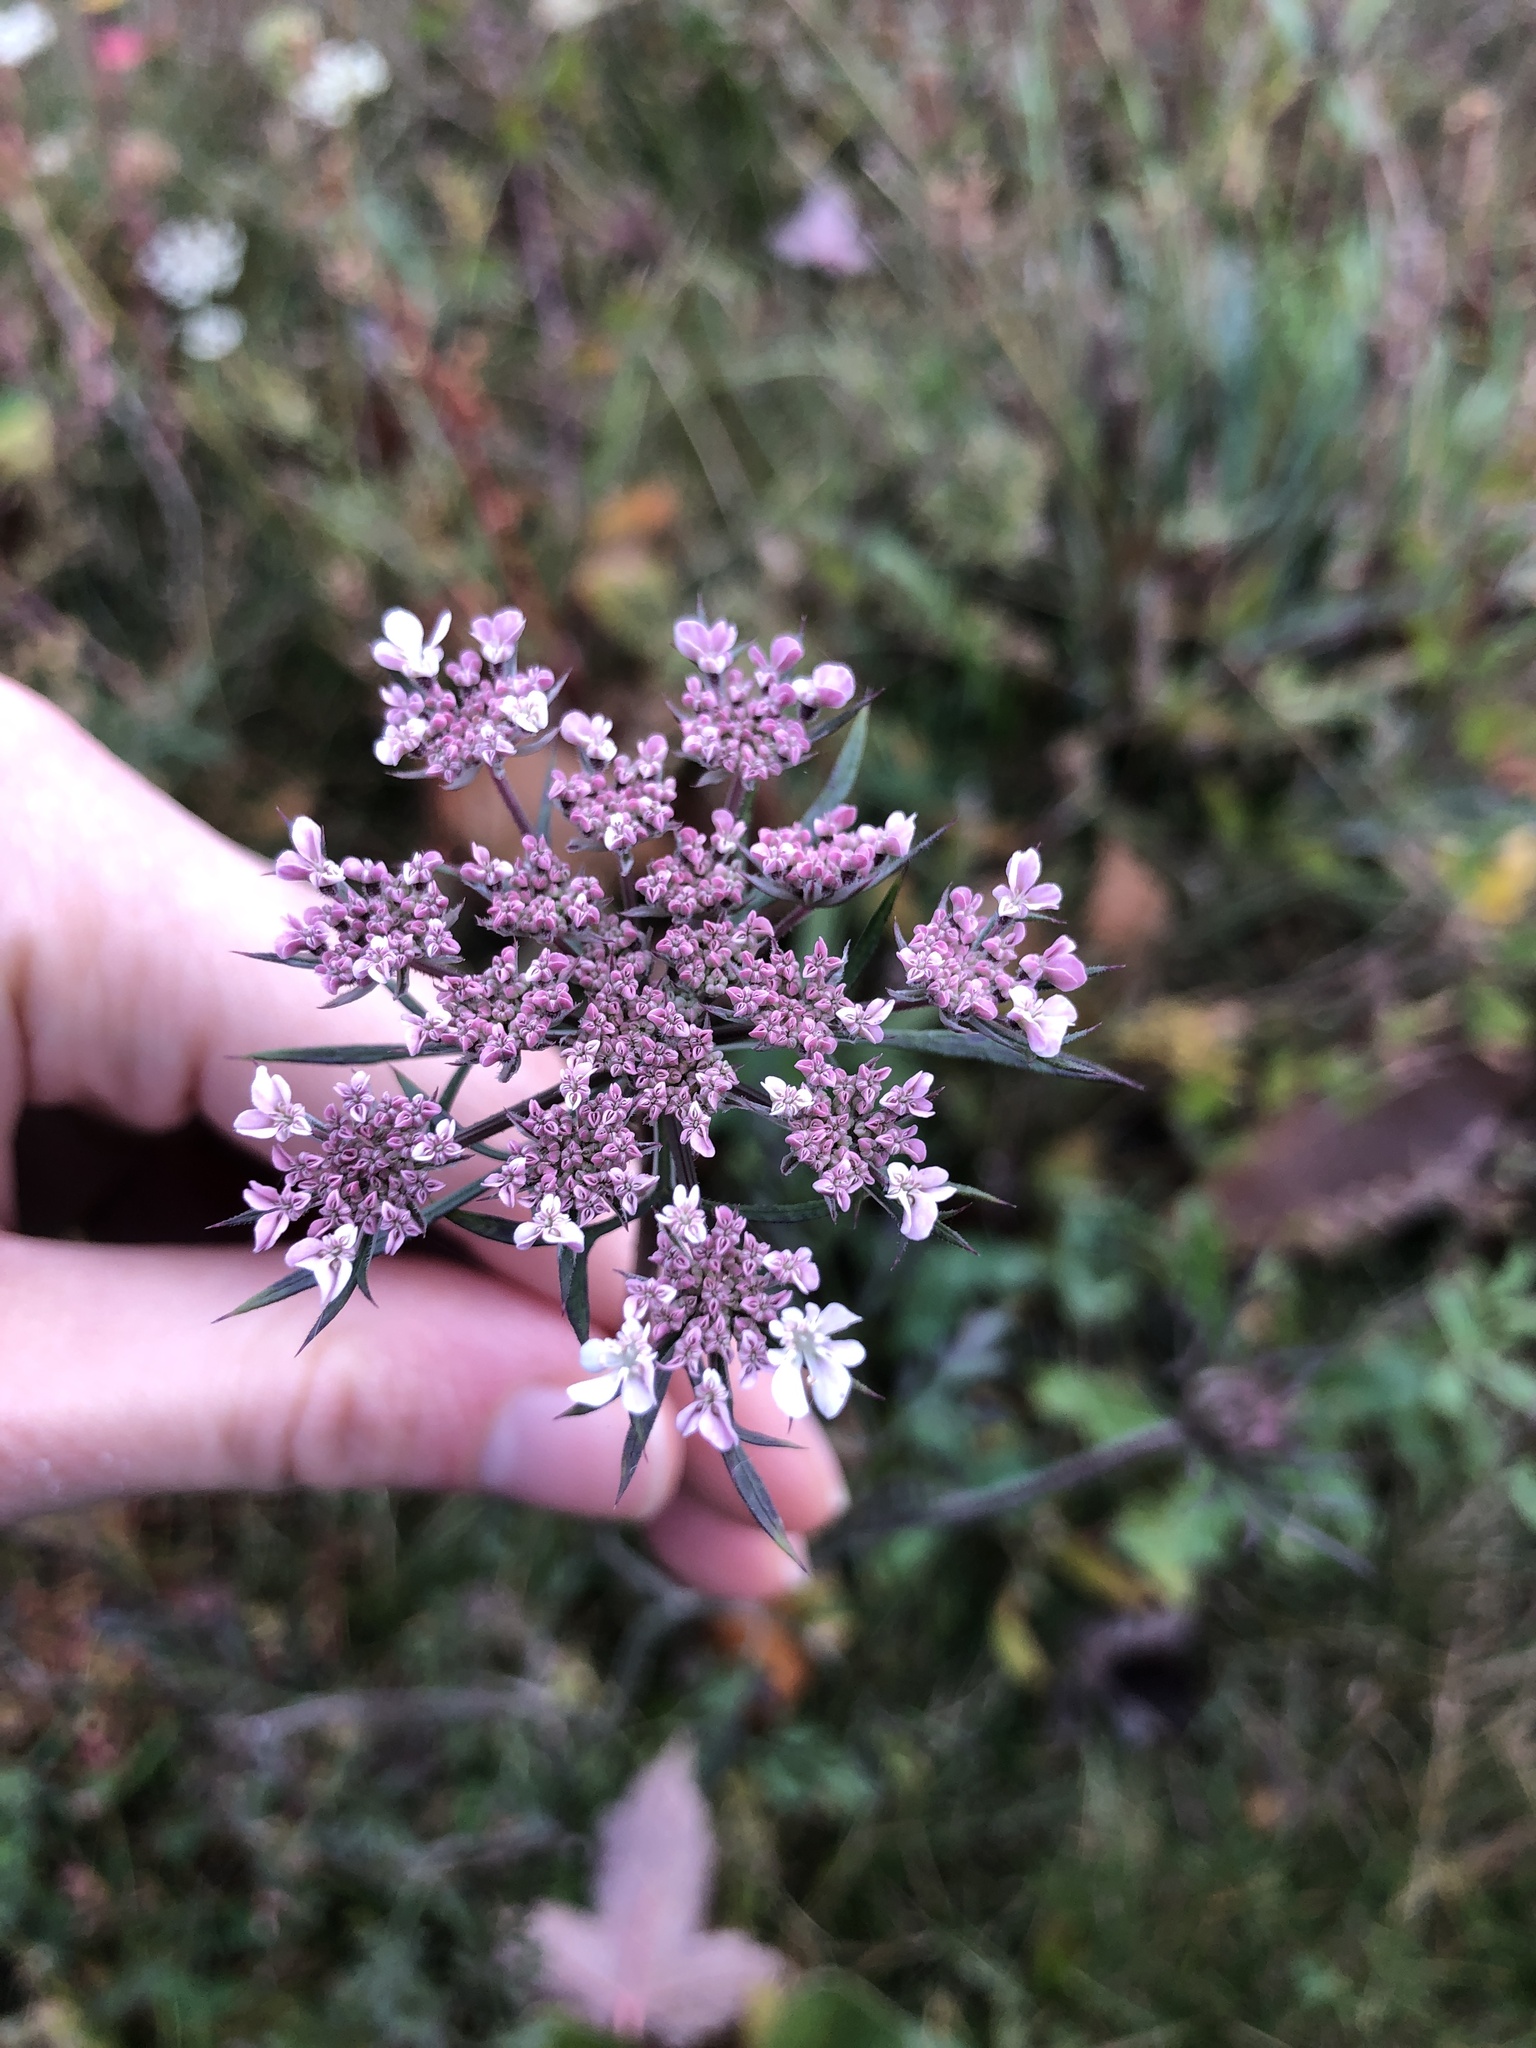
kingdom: Plantae
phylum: Tracheophyta
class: Magnoliopsida
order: Apiales
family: Apiaceae
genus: Daucus
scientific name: Daucus carota
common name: Wild carrot
